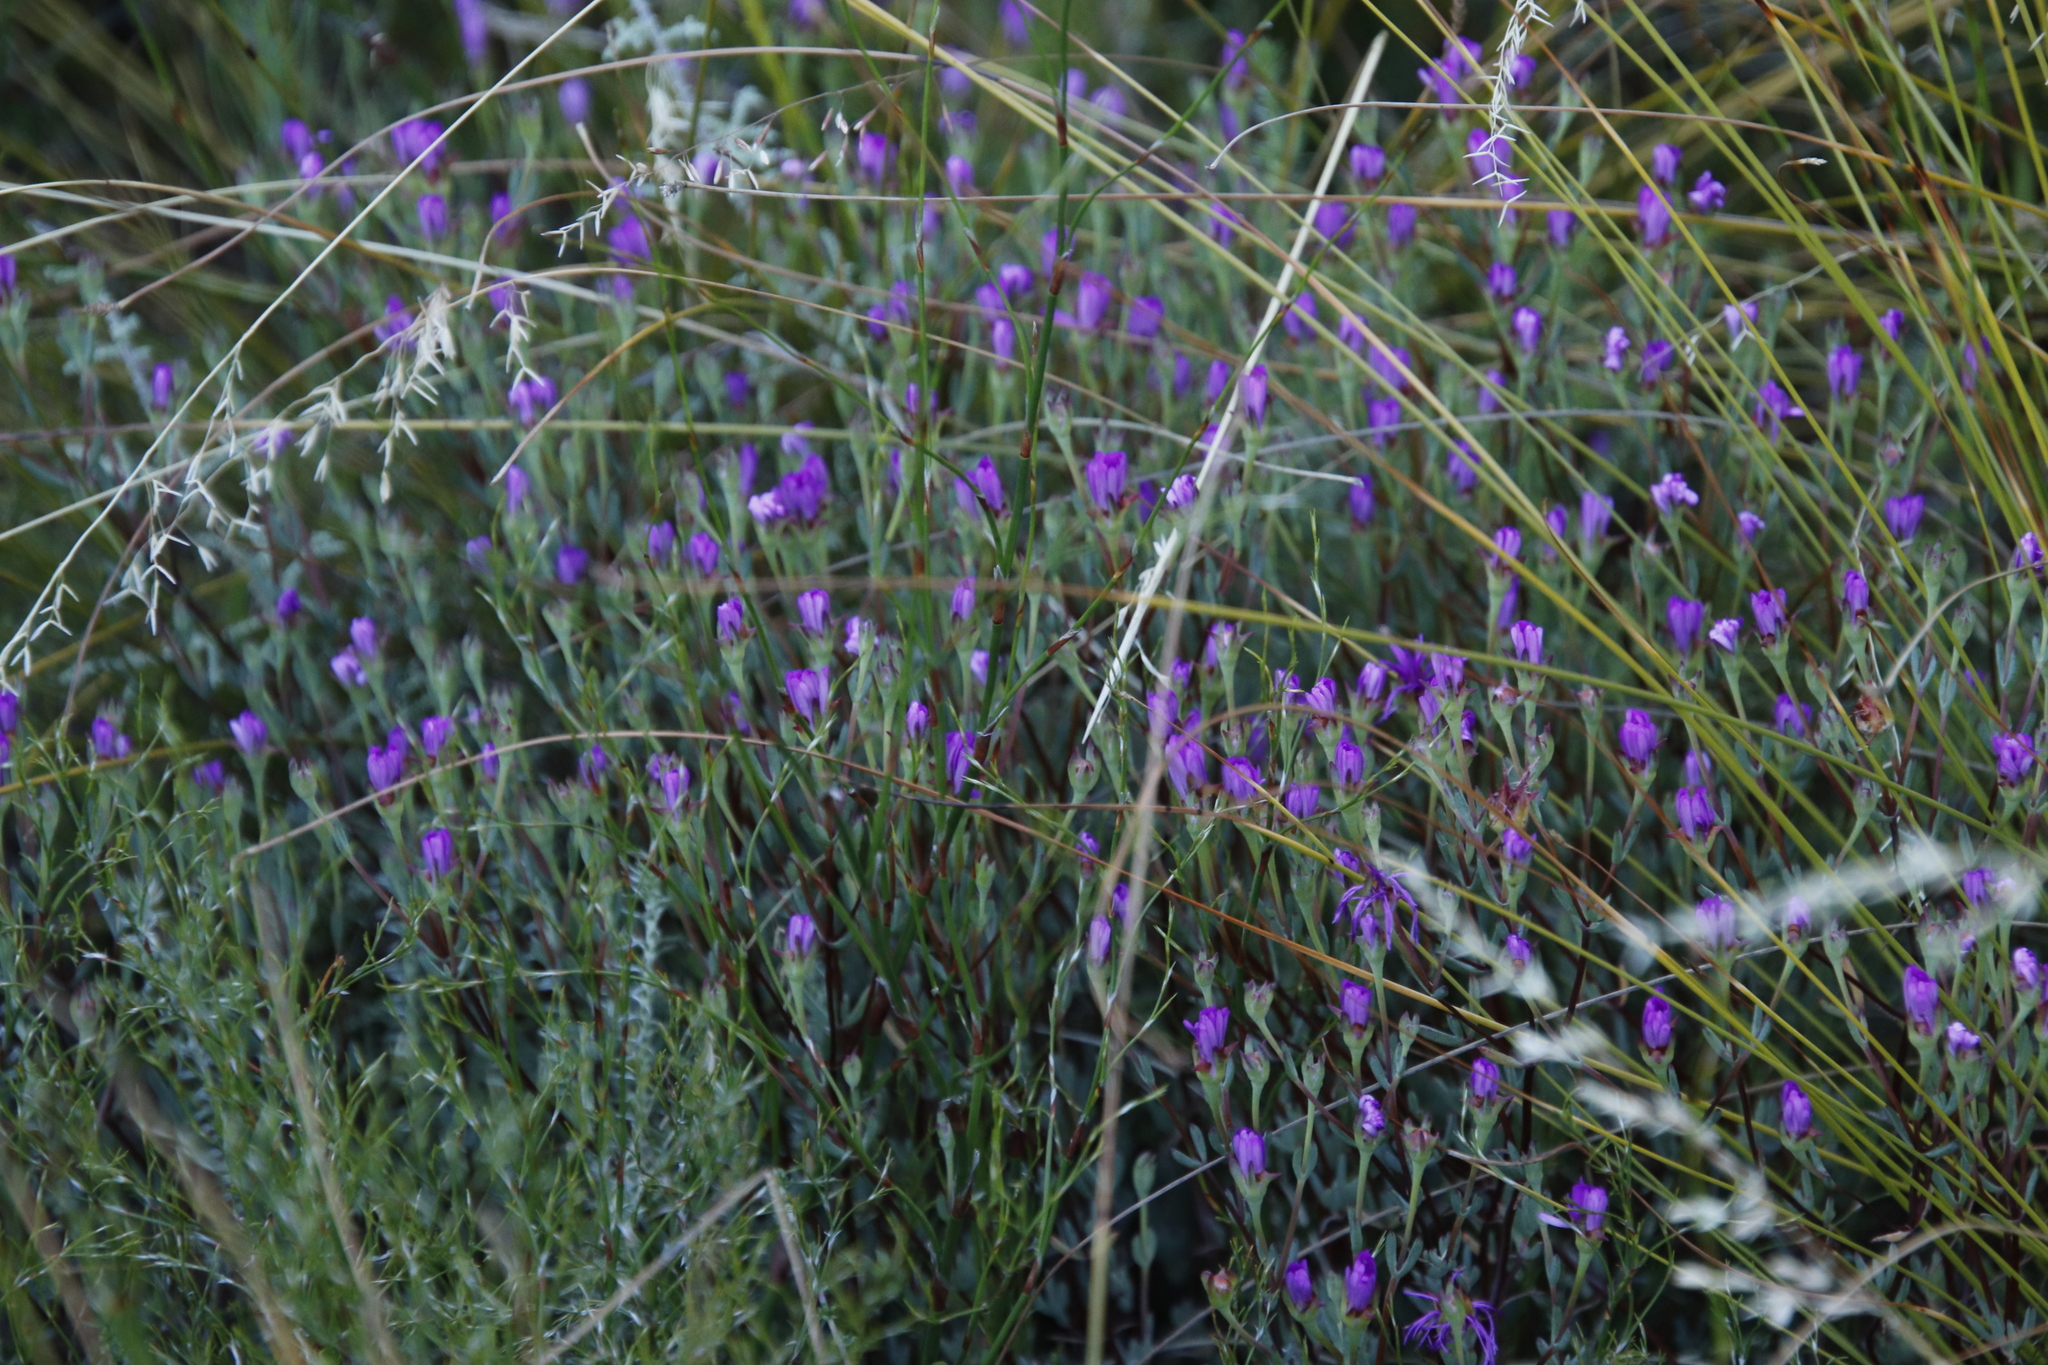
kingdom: Plantae
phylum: Tracheophyta
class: Magnoliopsida
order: Caryophyllales
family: Aizoaceae
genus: Lampranthus
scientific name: Lampranthus falcatus
